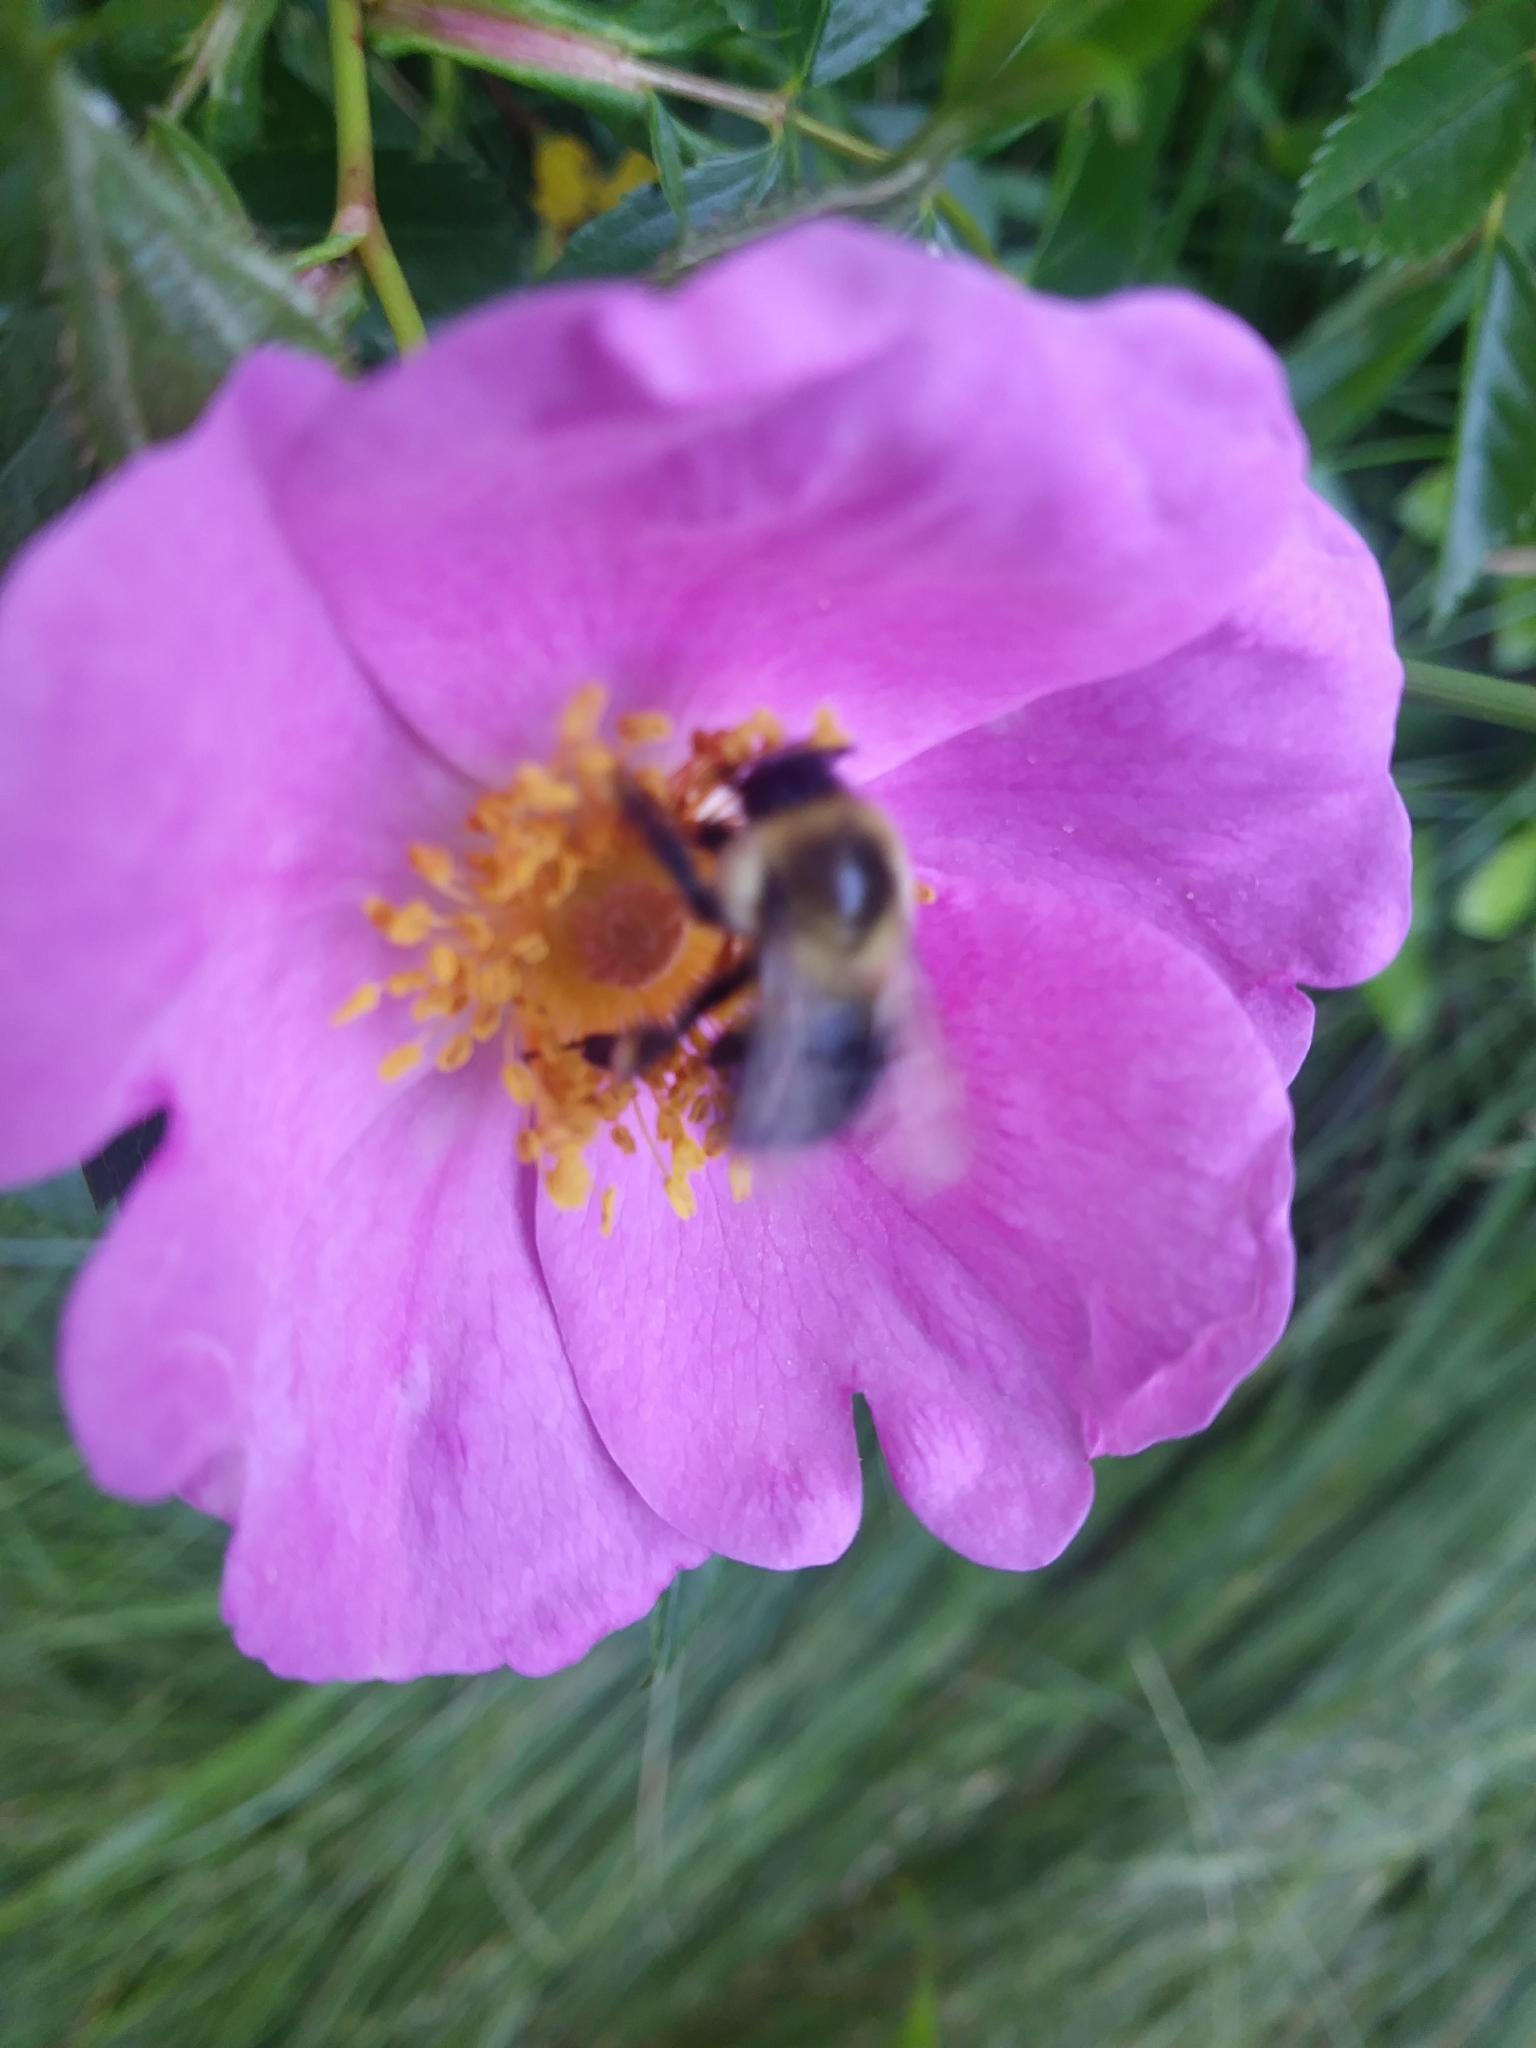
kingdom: Animalia
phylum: Arthropoda
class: Insecta
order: Hymenoptera
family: Apidae
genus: Bombus
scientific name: Bombus impatiens
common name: Common eastern bumble bee
